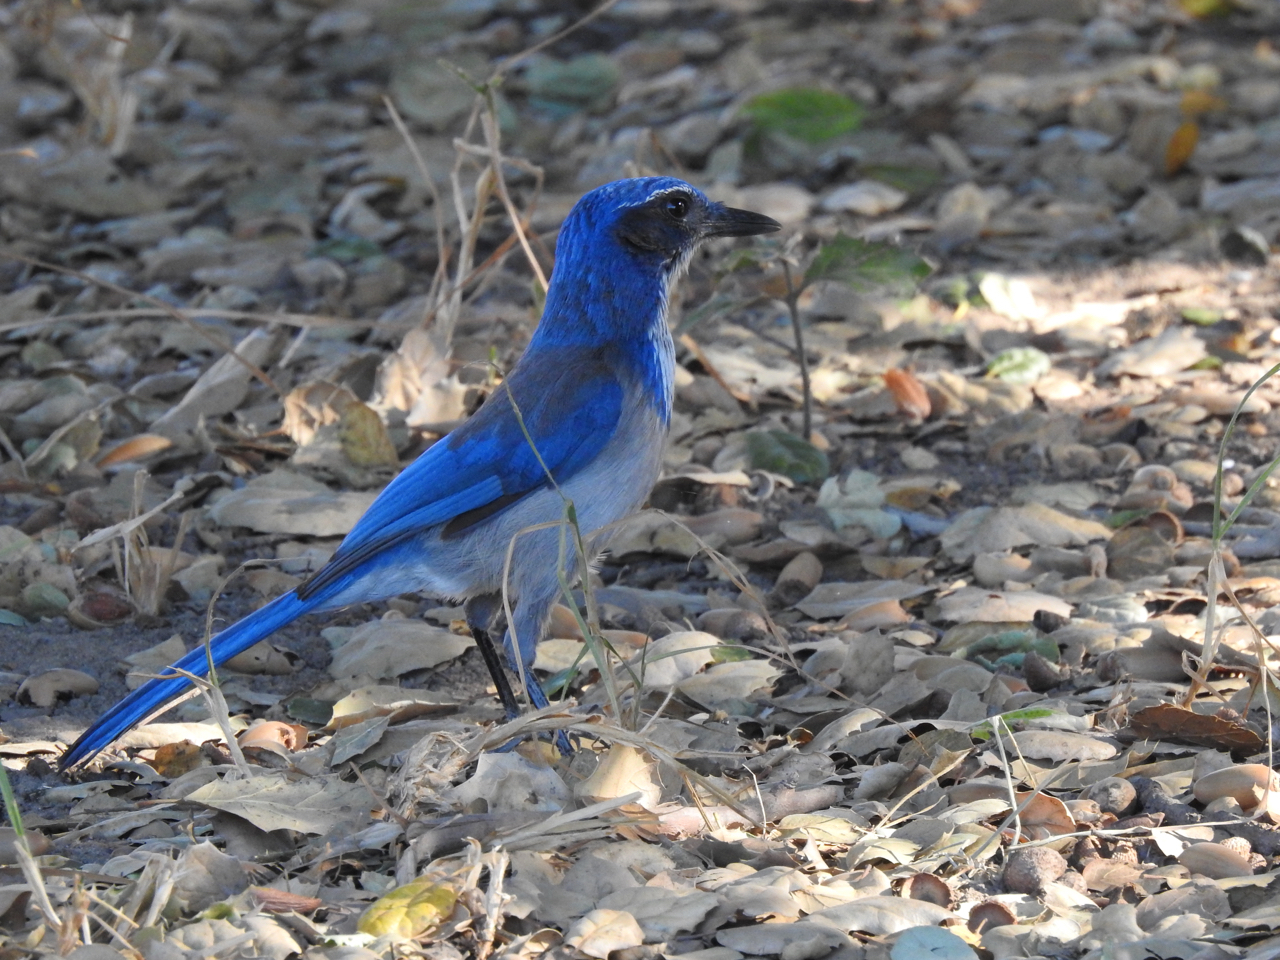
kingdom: Animalia
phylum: Chordata
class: Aves
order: Passeriformes
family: Corvidae
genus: Aphelocoma
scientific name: Aphelocoma californica
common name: California scrub-jay
